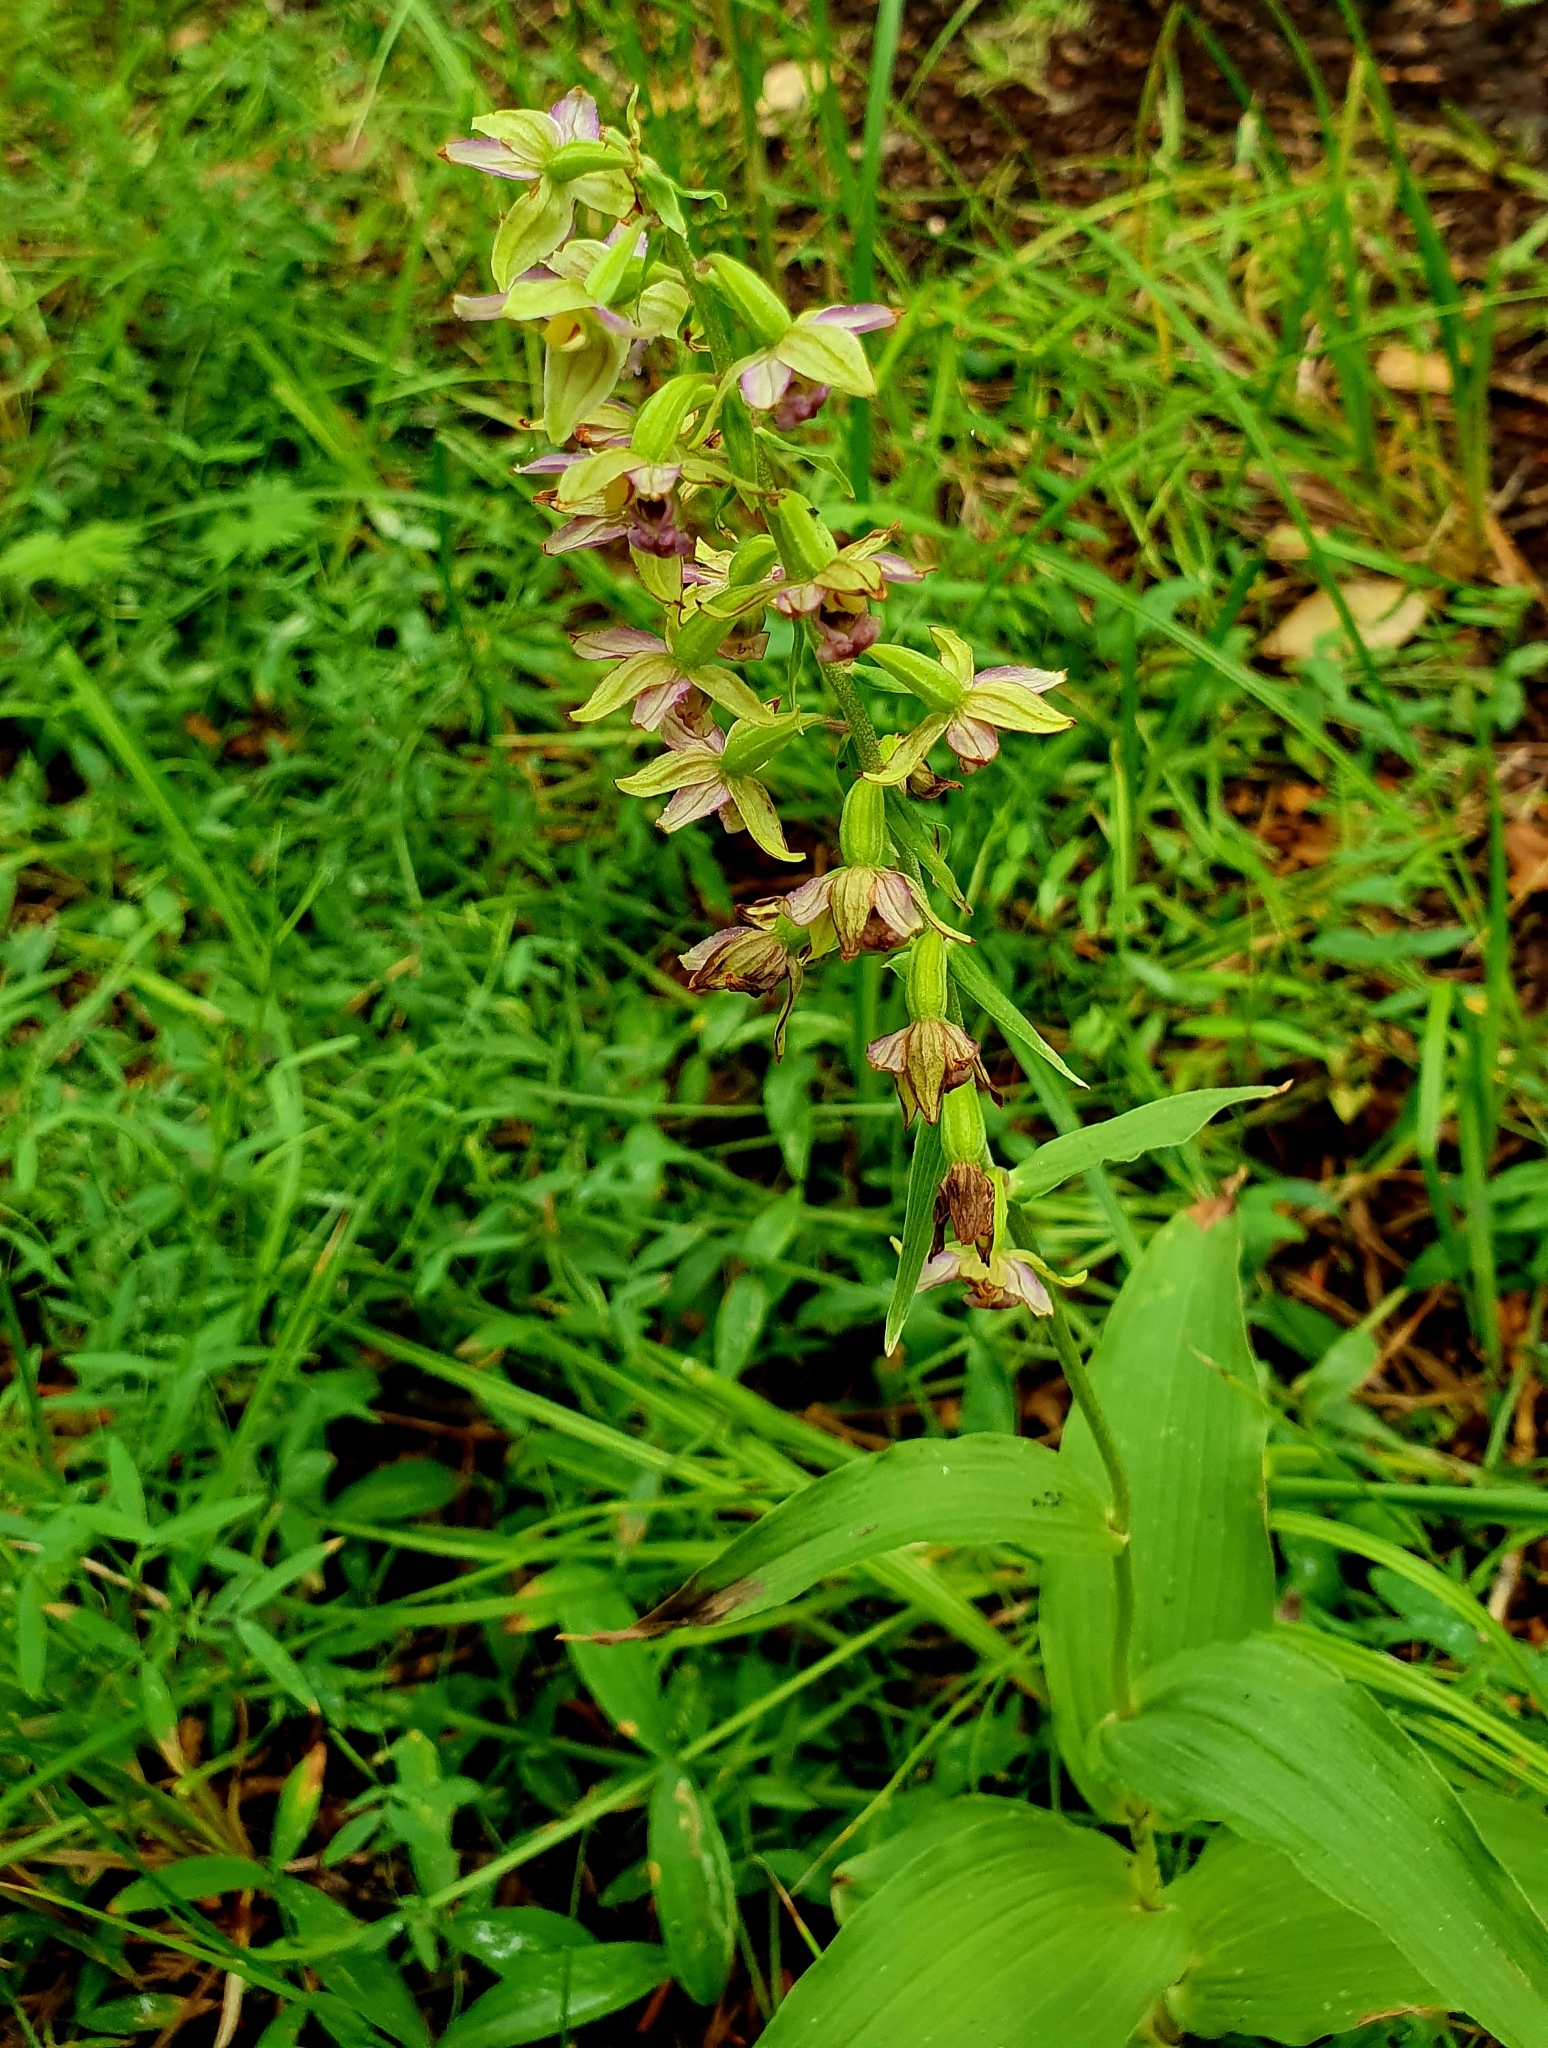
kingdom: Plantae
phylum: Tracheophyta
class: Liliopsida
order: Asparagales
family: Orchidaceae
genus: Epipactis
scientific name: Epipactis helleborine
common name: Broad-leaved helleborine
